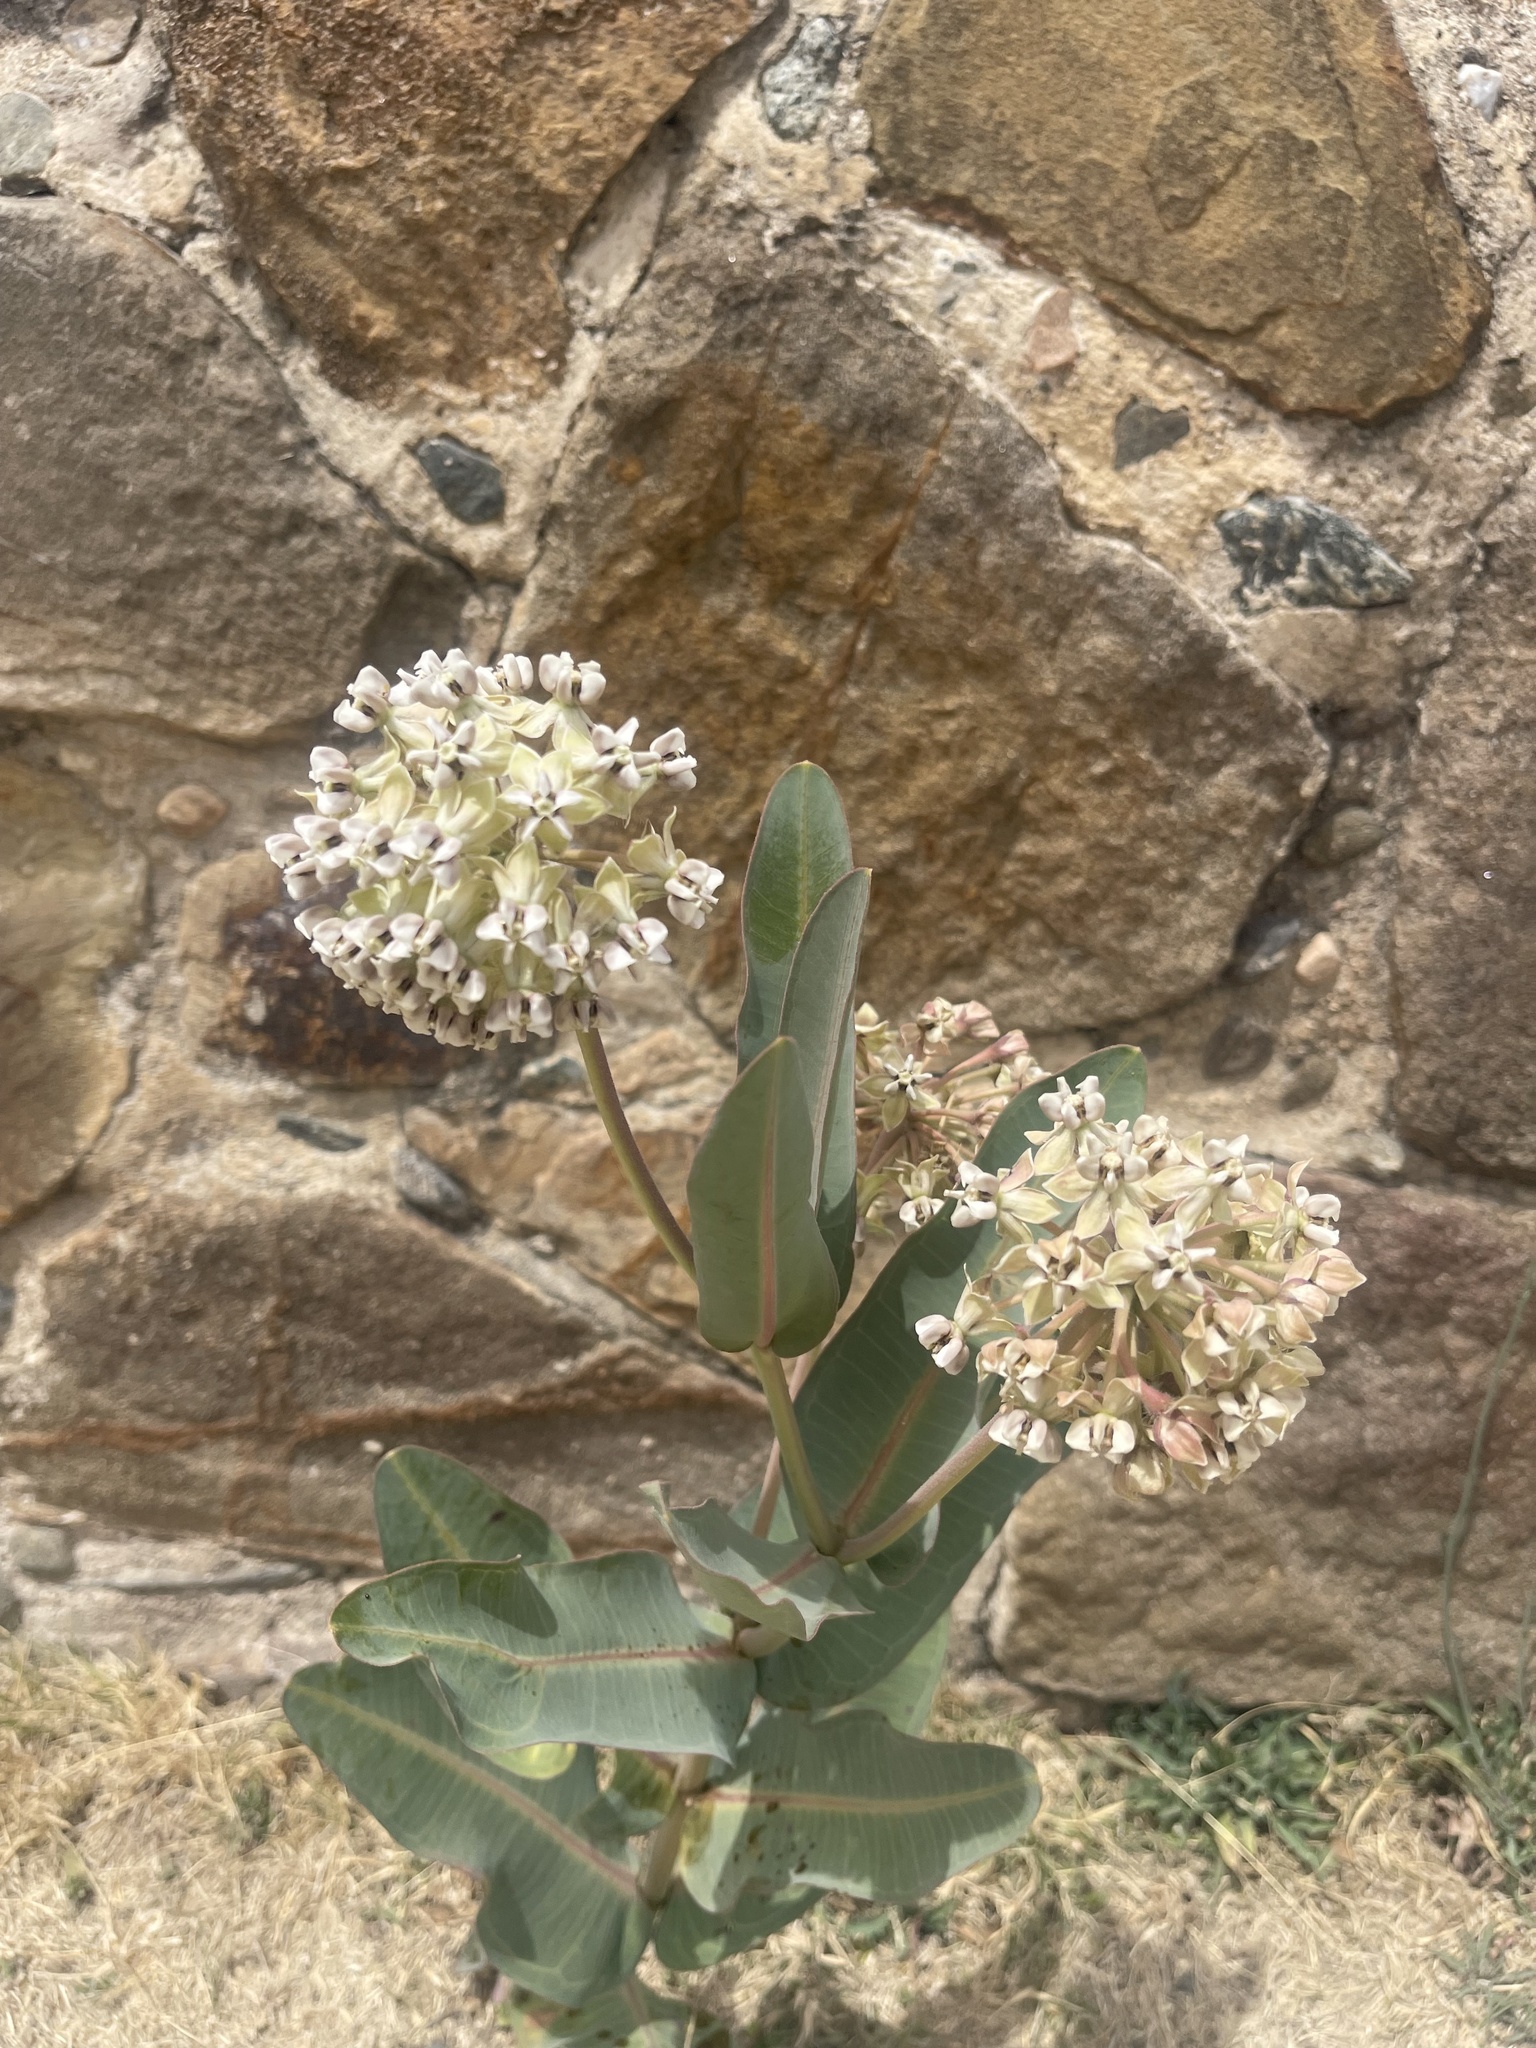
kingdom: Plantae
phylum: Tracheophyta
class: Magnoliopsida
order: Gentianales
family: Apocynaceae
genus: Asclepias
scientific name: Asclepias glaucescens
